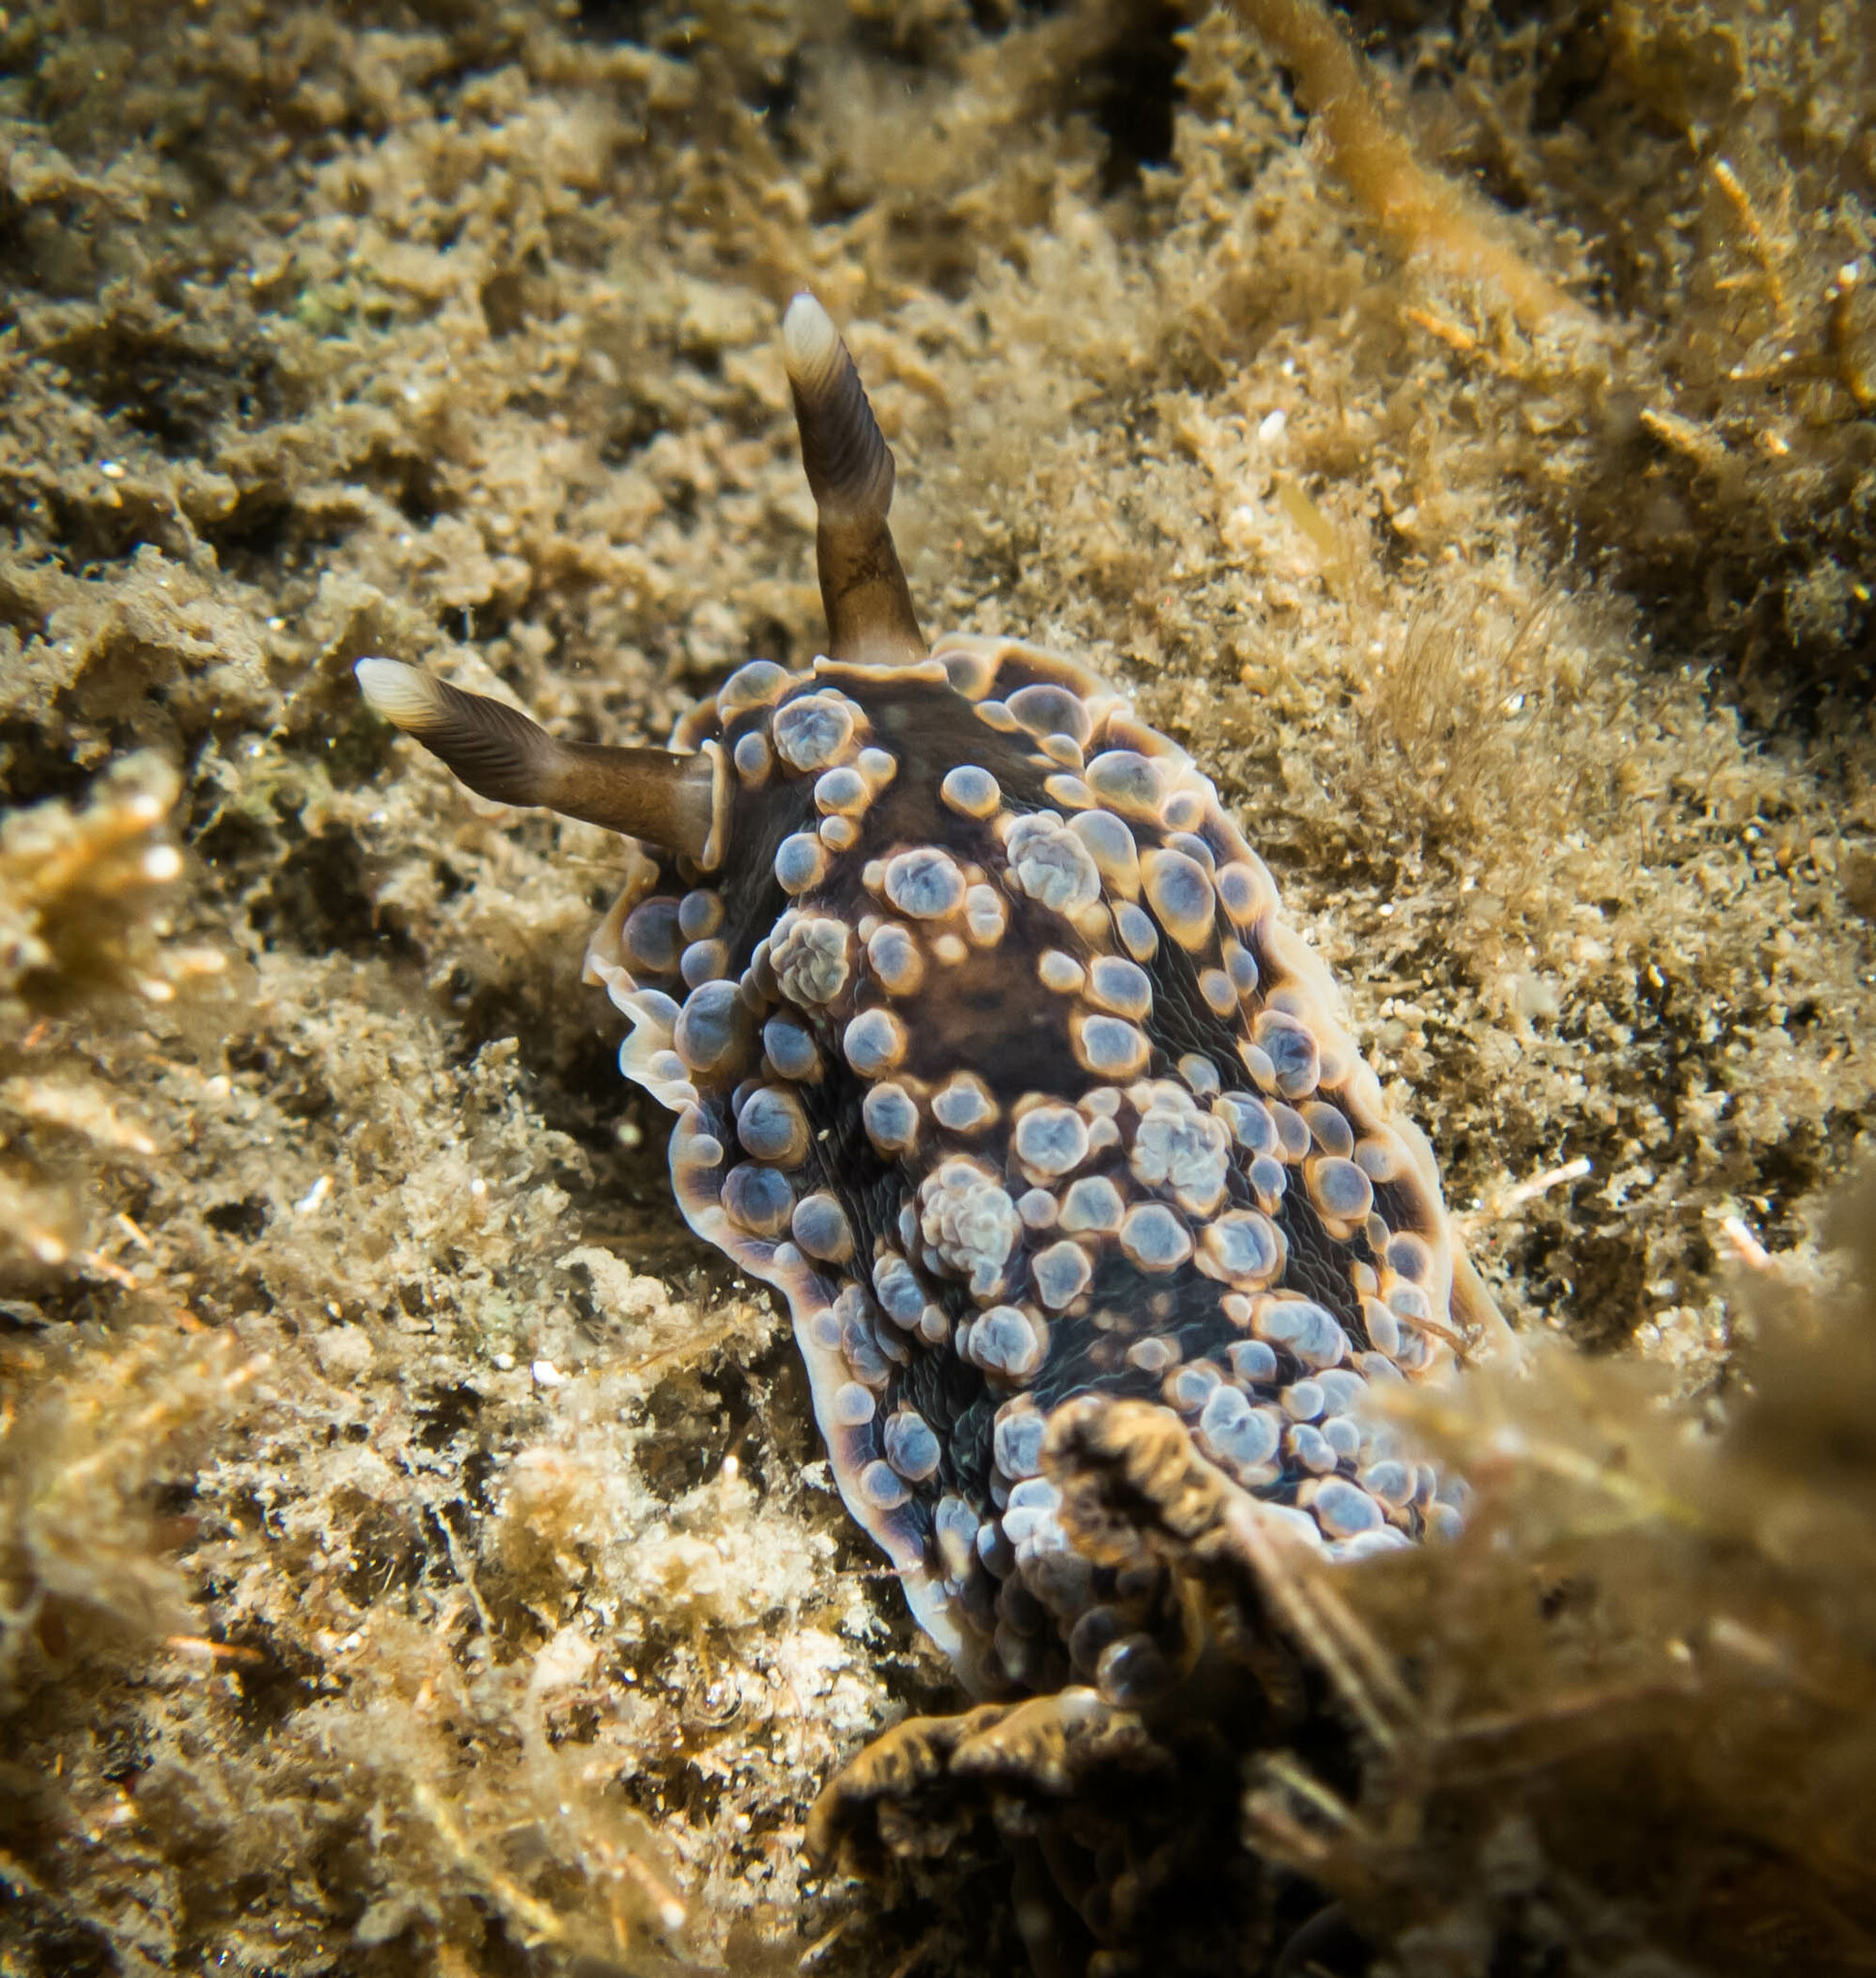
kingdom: Animalia
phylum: Mollusca
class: Gastropoda
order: Nudibranchia
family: Dendrodorididae
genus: Dendrodoris
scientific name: Dendrodoris krusensternii
